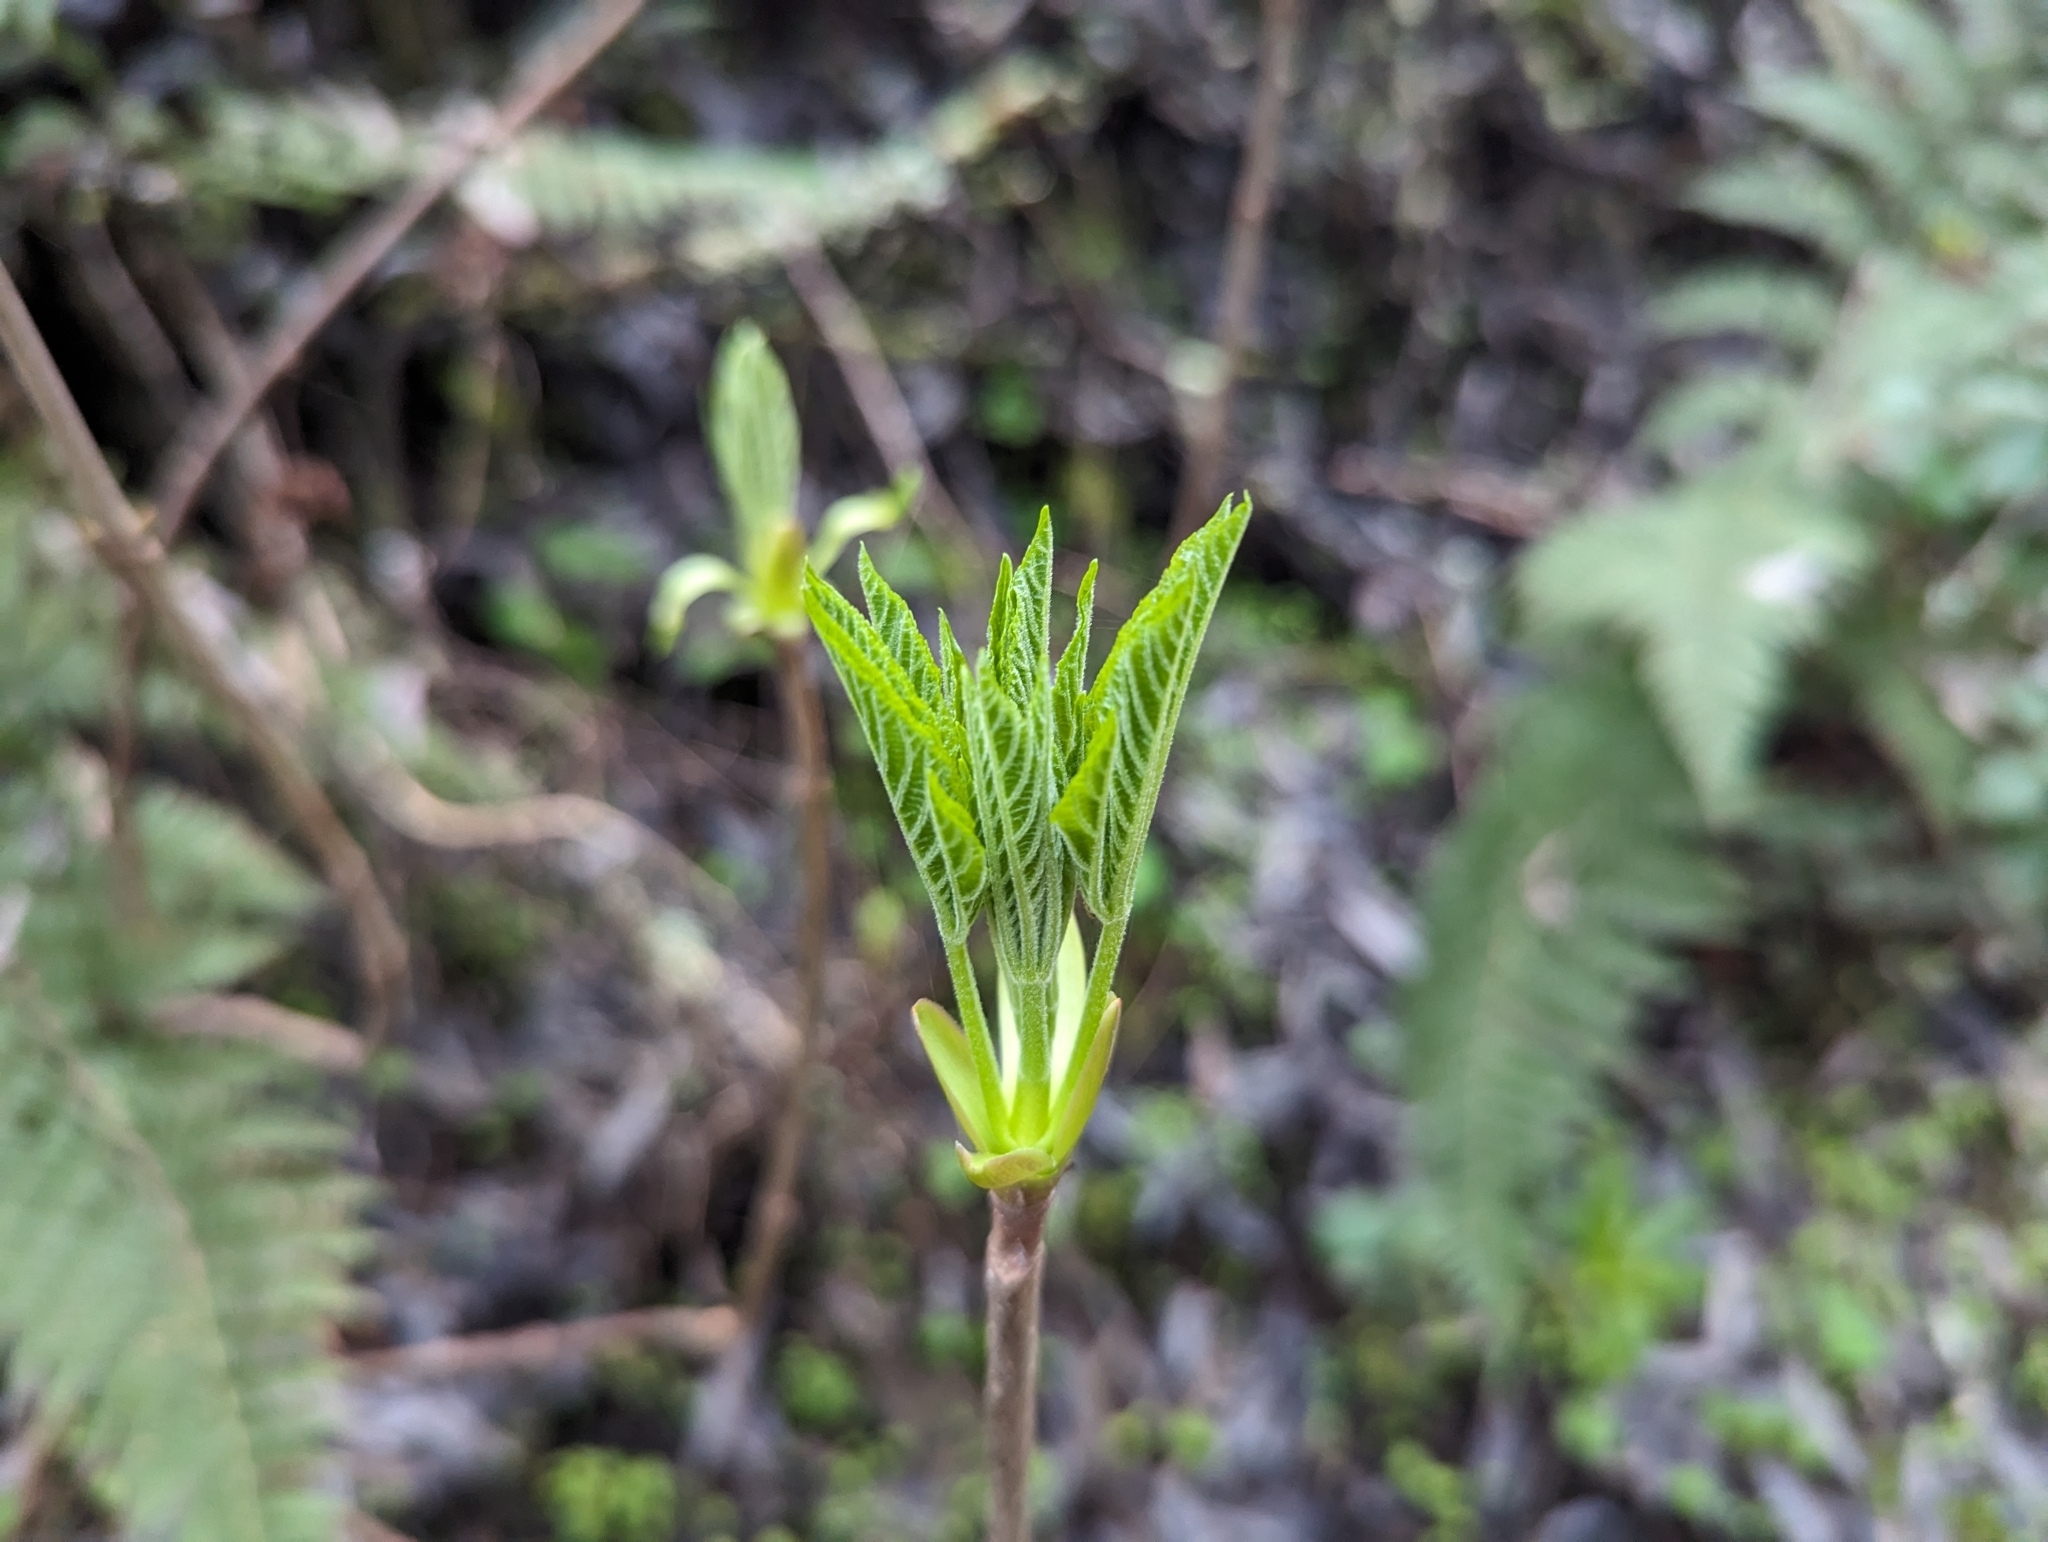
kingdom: Plantae
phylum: Tracheophyta
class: Magnoliopsida
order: Sapindales
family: Sapindaceae
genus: Aesculus
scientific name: Aesculus californica
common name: California buckeye
